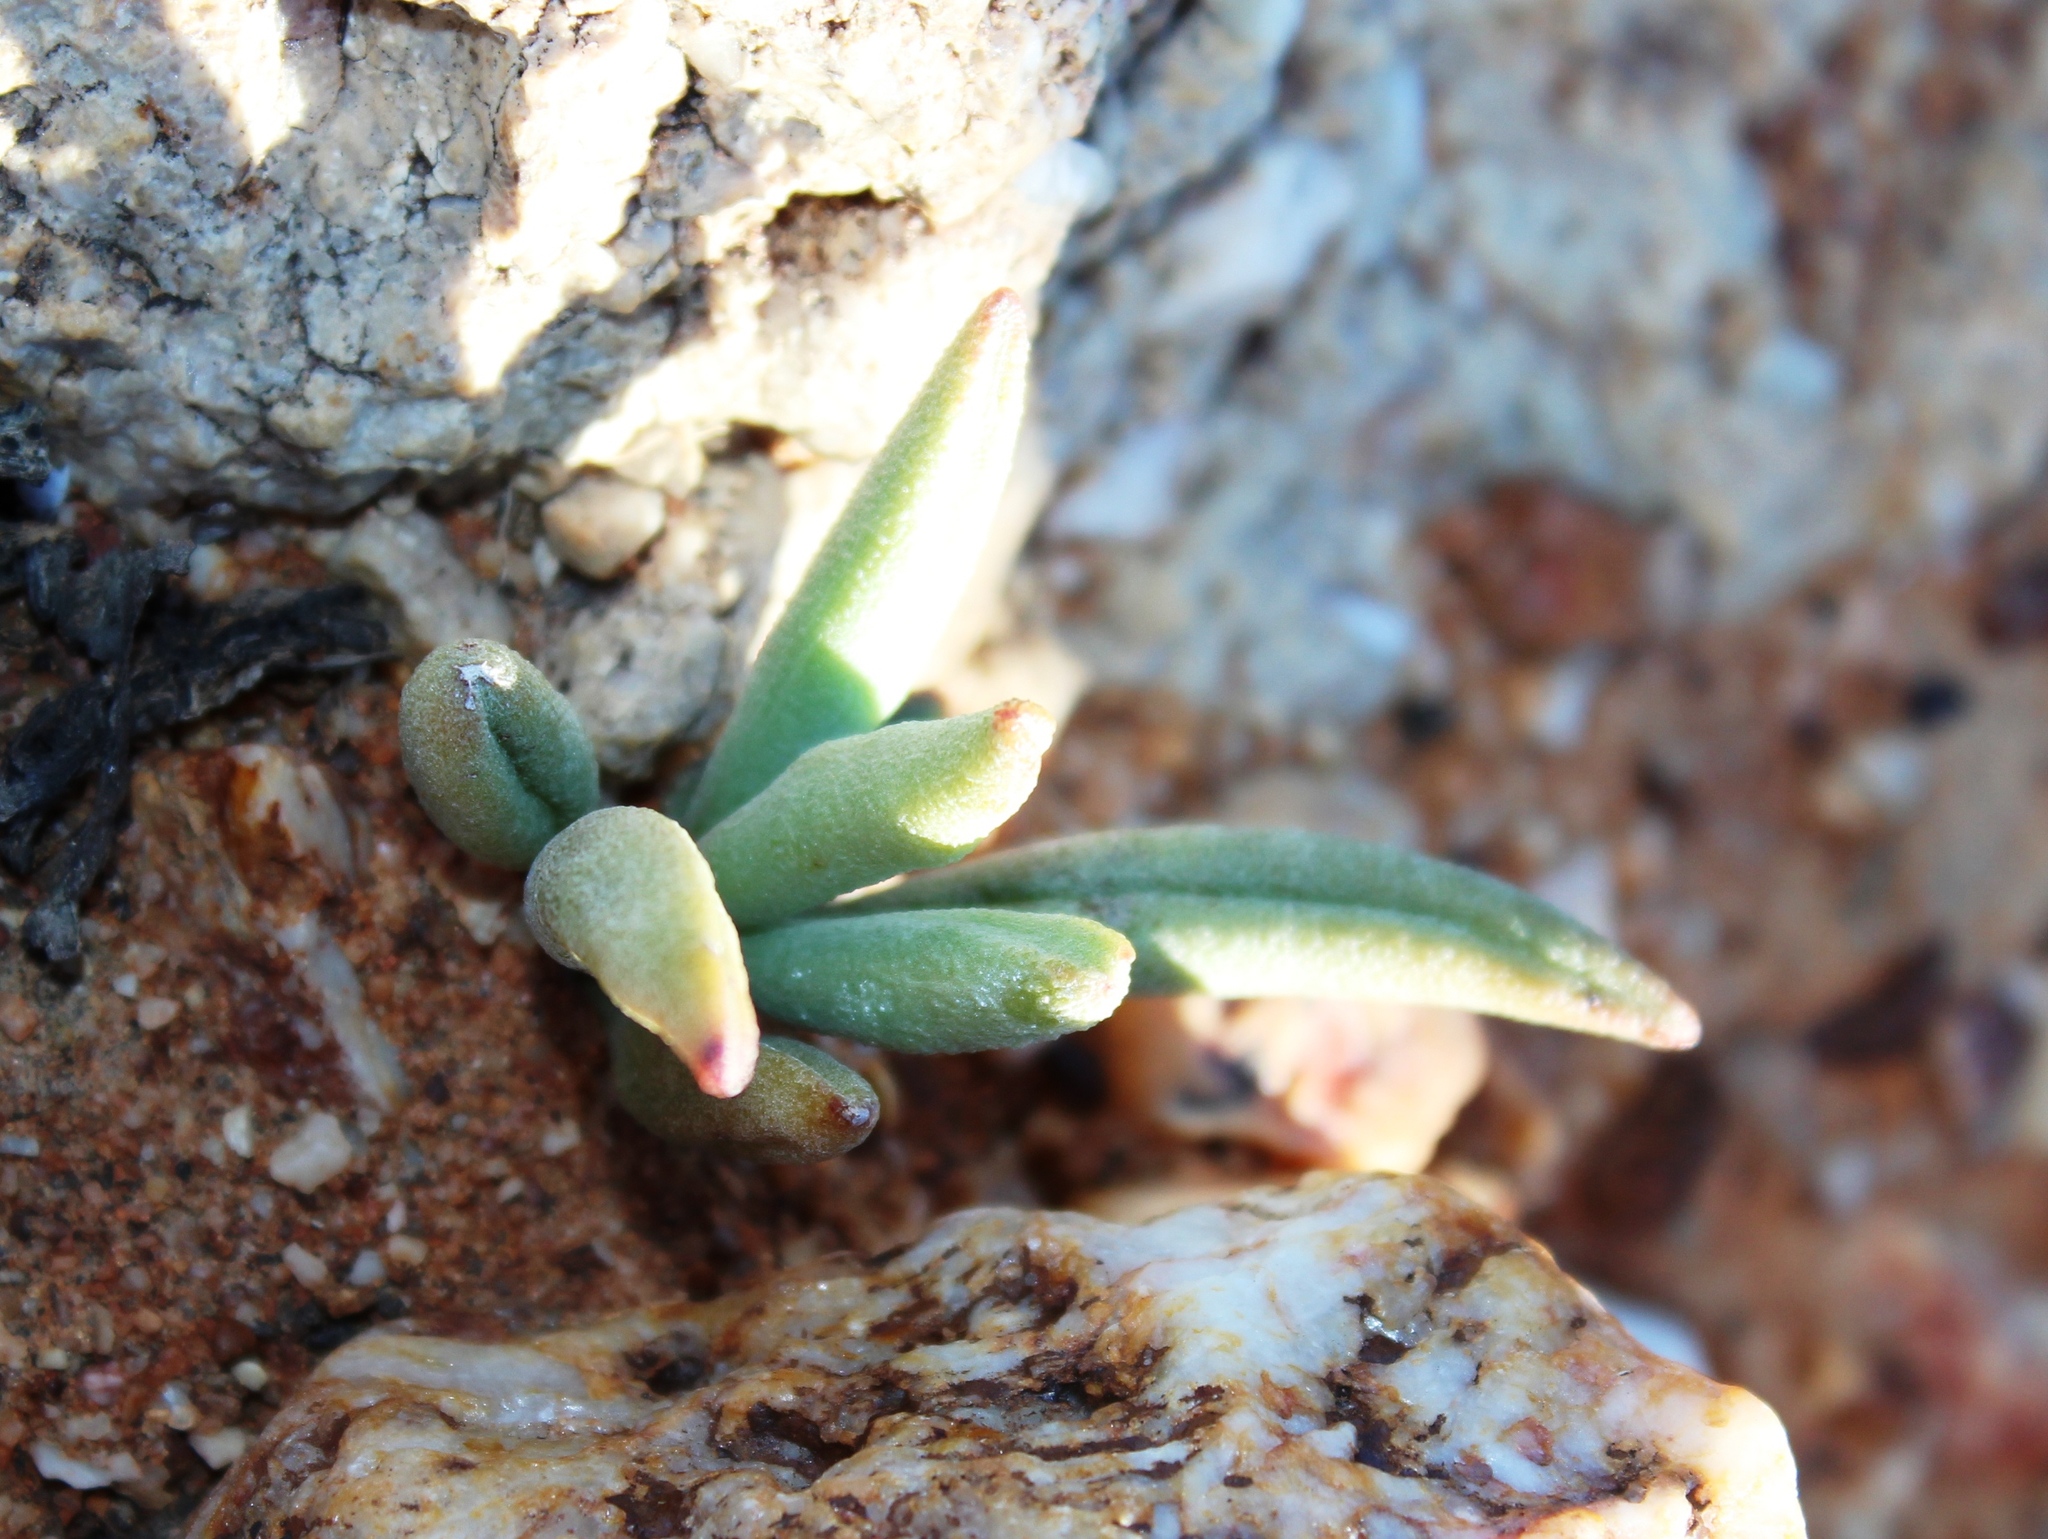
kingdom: Plantae
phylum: Tracheophyta
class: Magnoliopsida
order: Saxifragales
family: Crassulaceae
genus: Adromischus
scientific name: Adromischus marianiae
